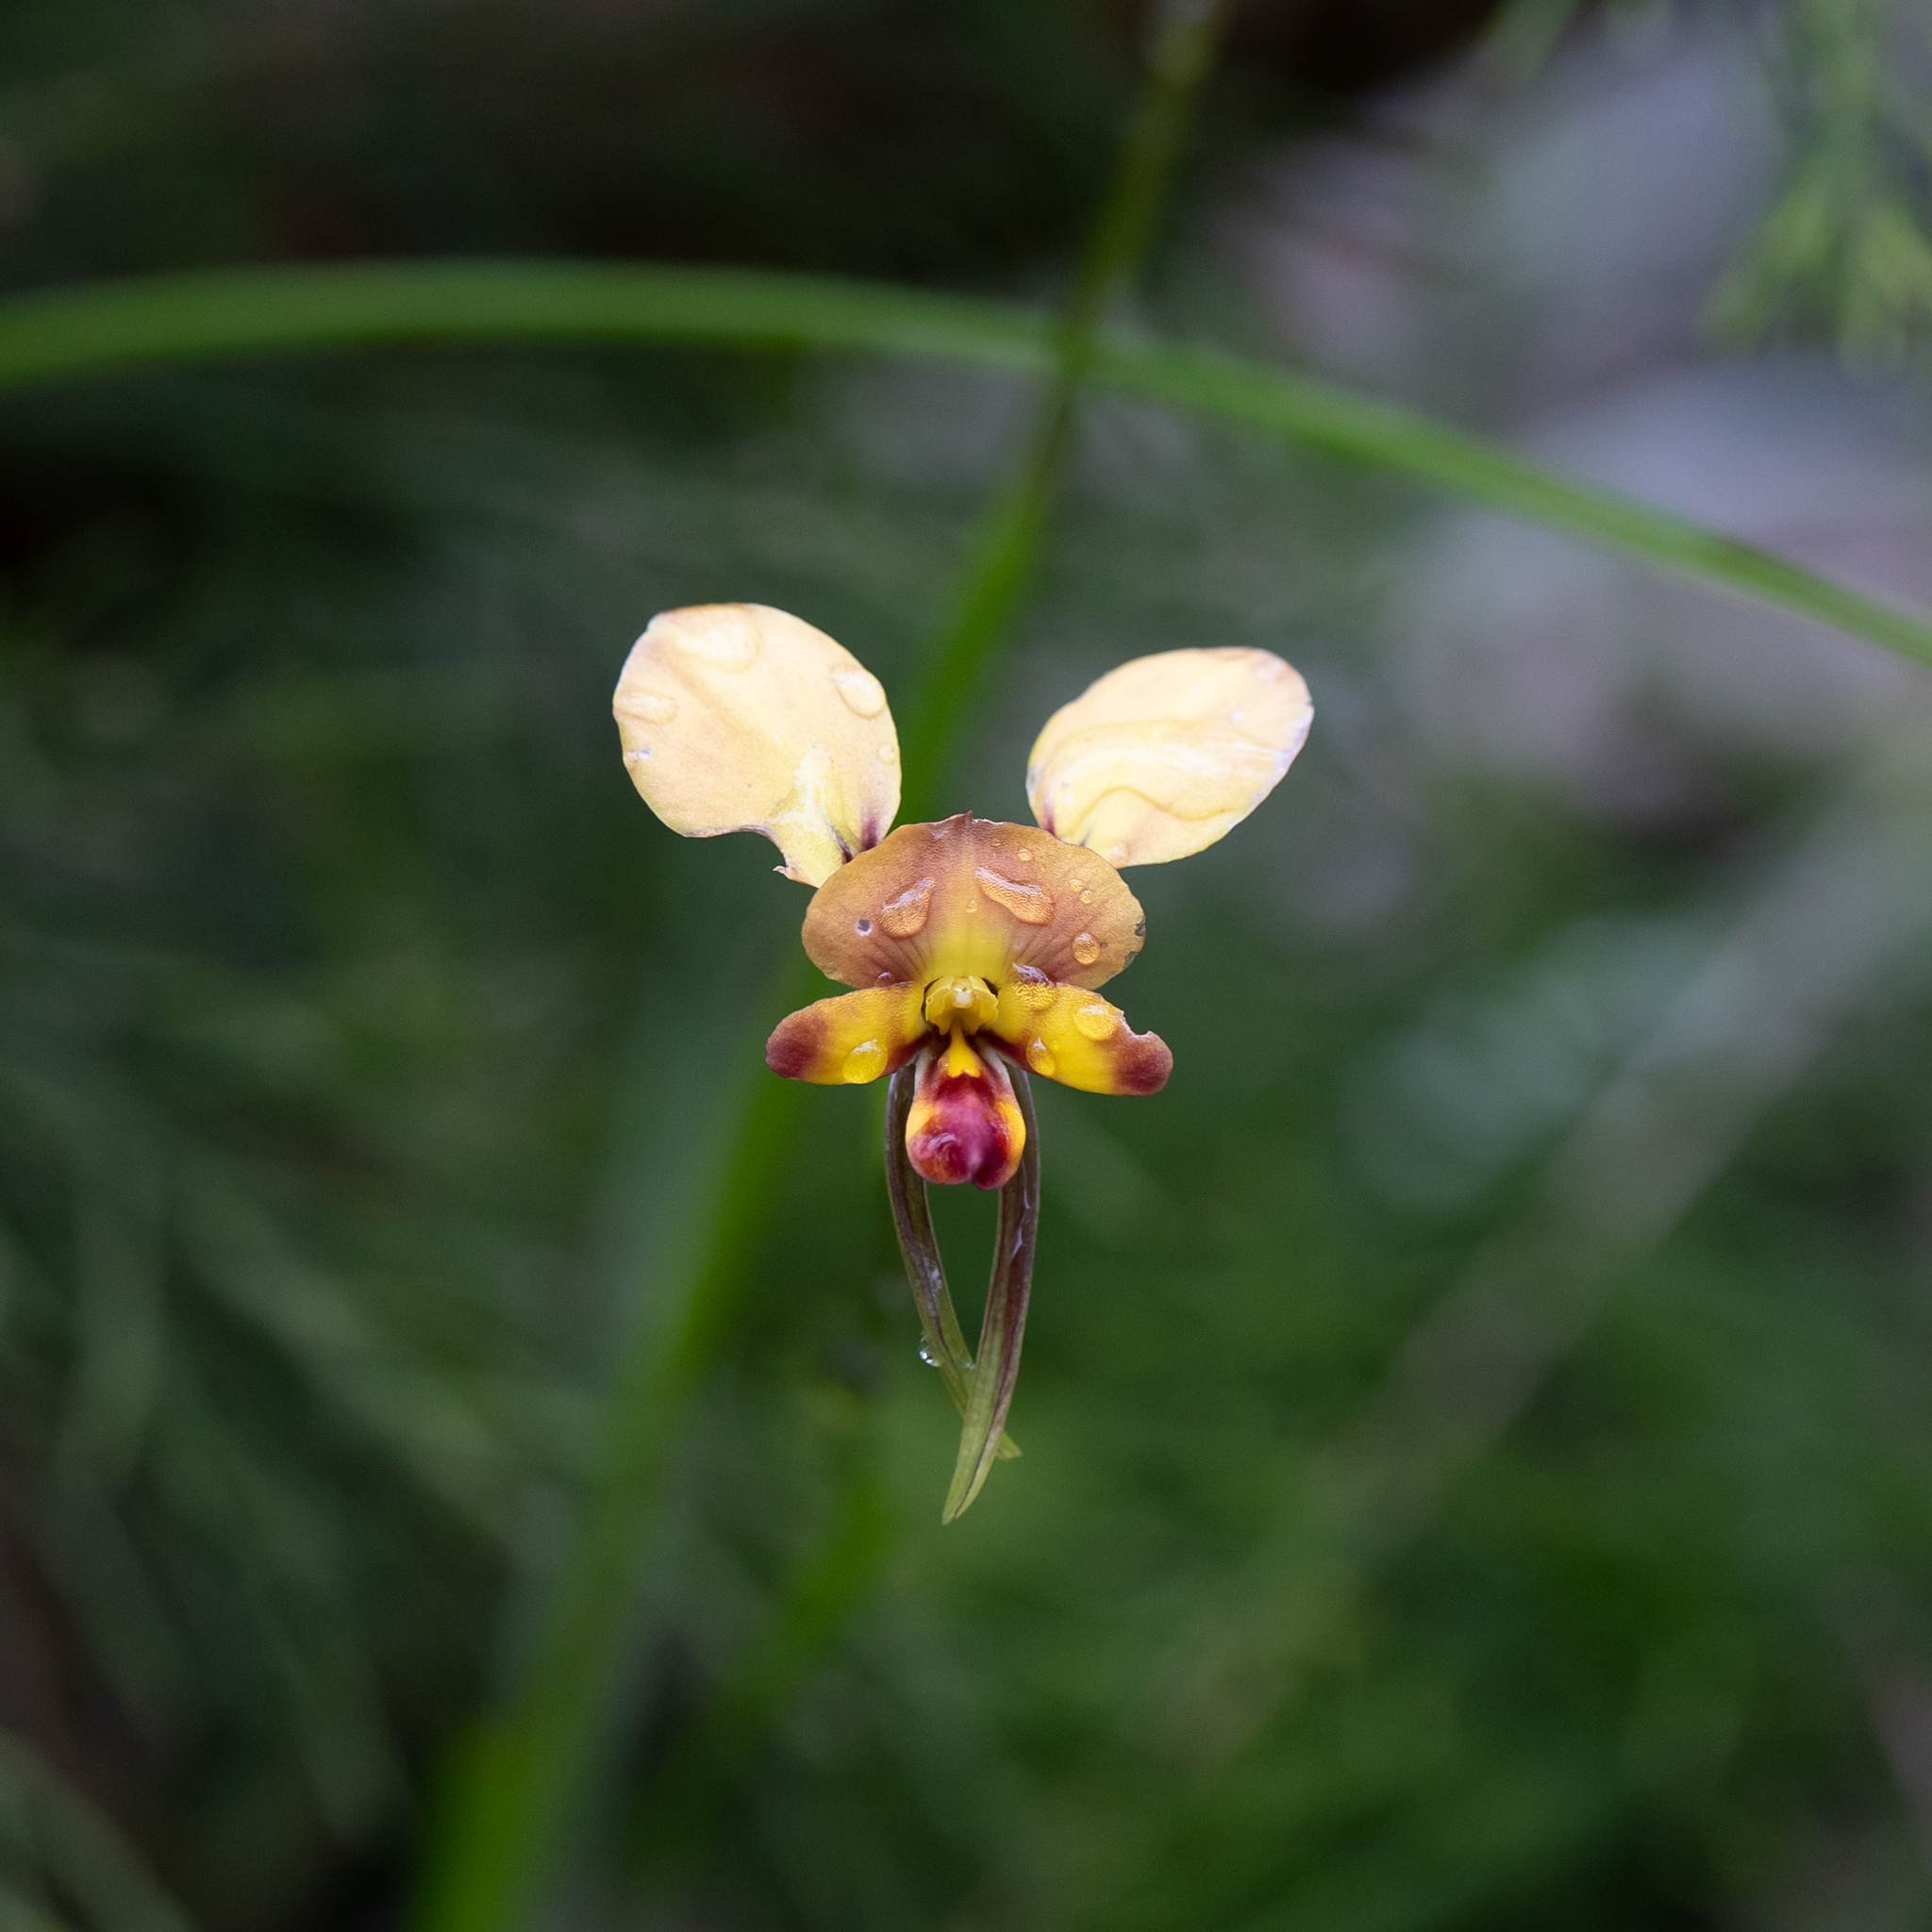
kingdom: Plantae
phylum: Tracheophyta
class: Liliopsida
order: Asparagales
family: Orchidaceae
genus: Diuris
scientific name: Diuris orientis
